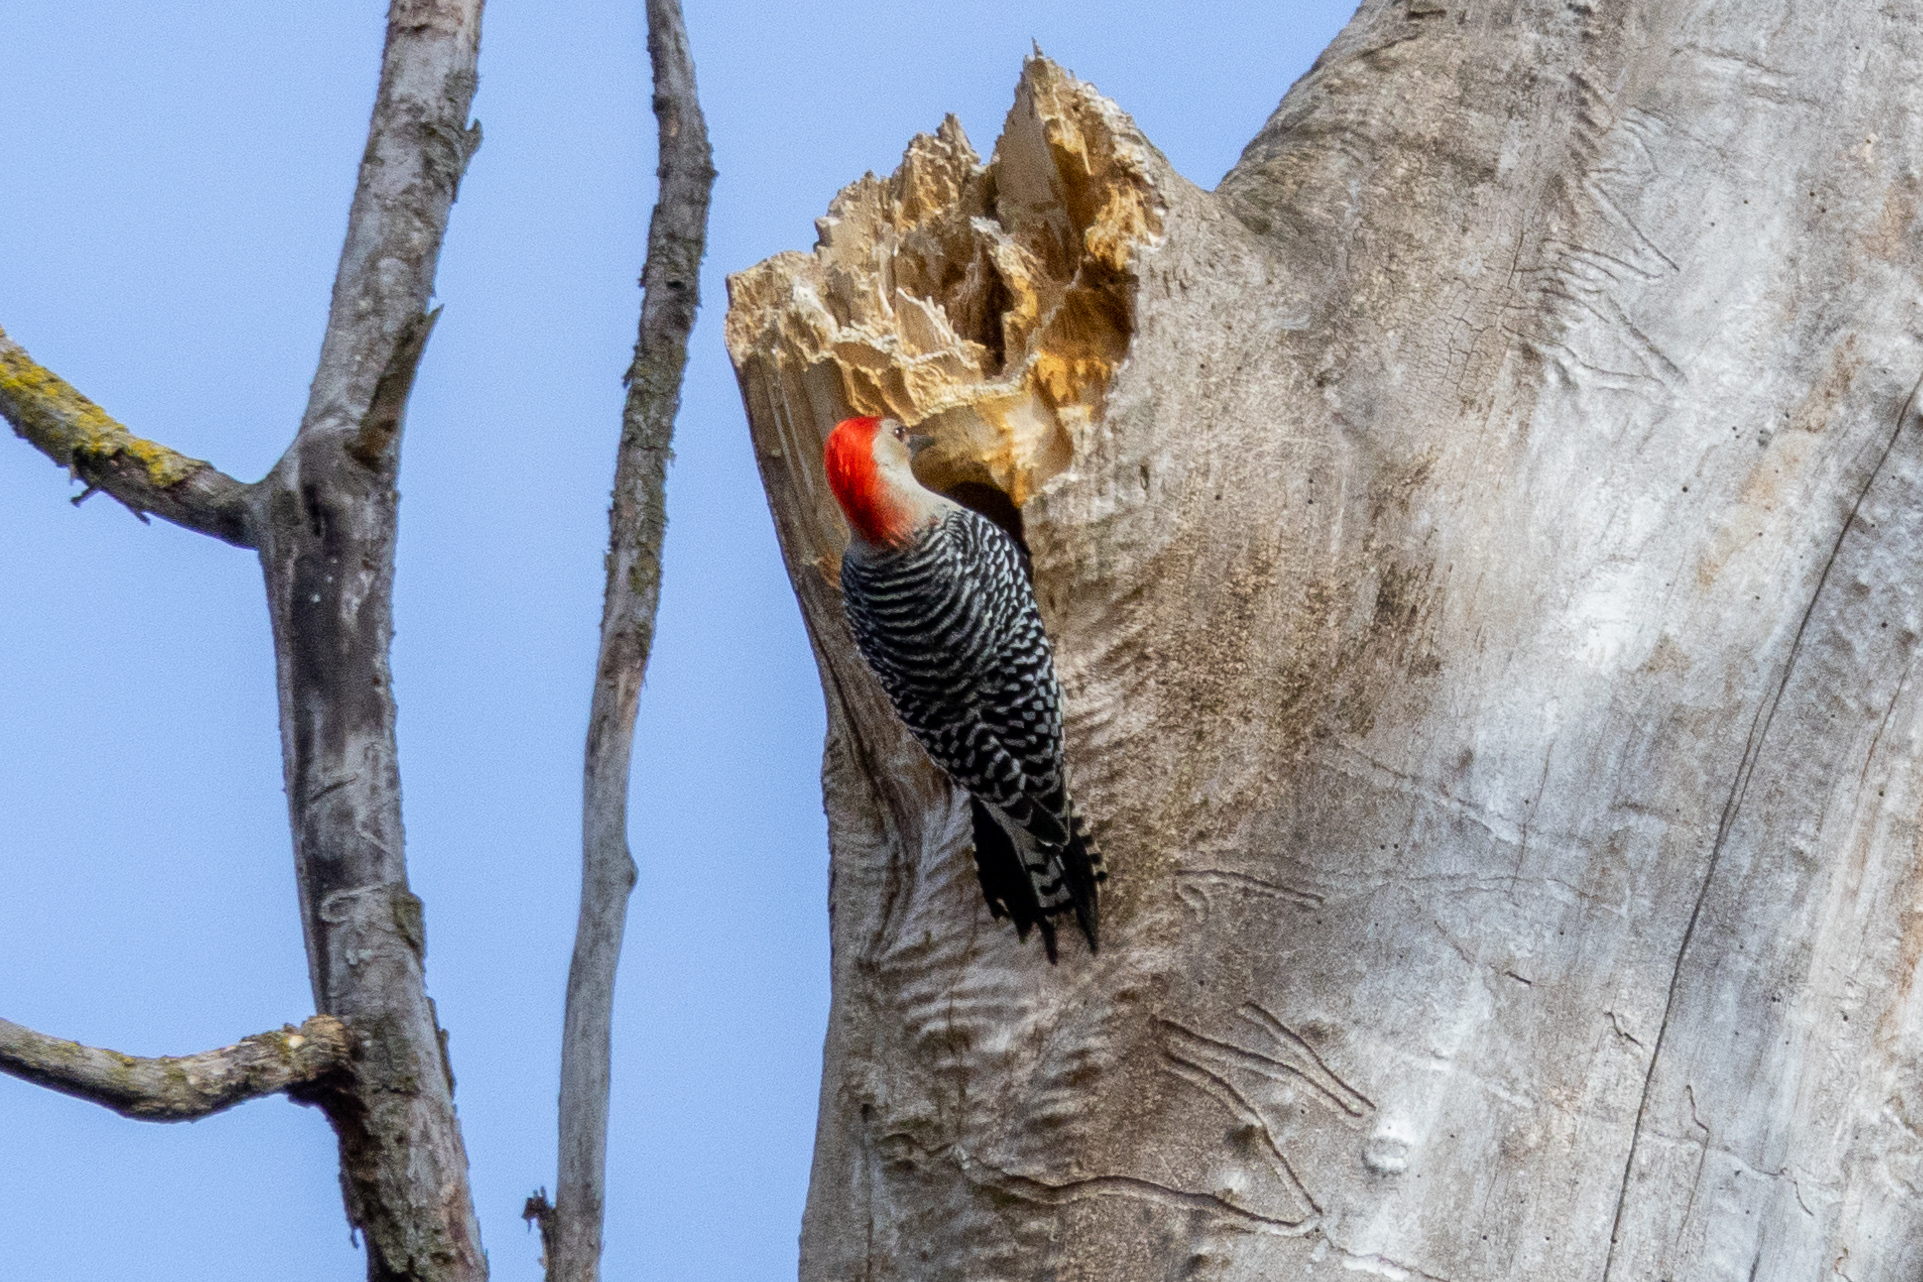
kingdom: Animalia
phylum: Chordata
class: Aves
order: Piciformes
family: Picidae
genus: Melanerpes
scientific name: Melanerpes carolinus
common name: Red-bellied woodpecker
